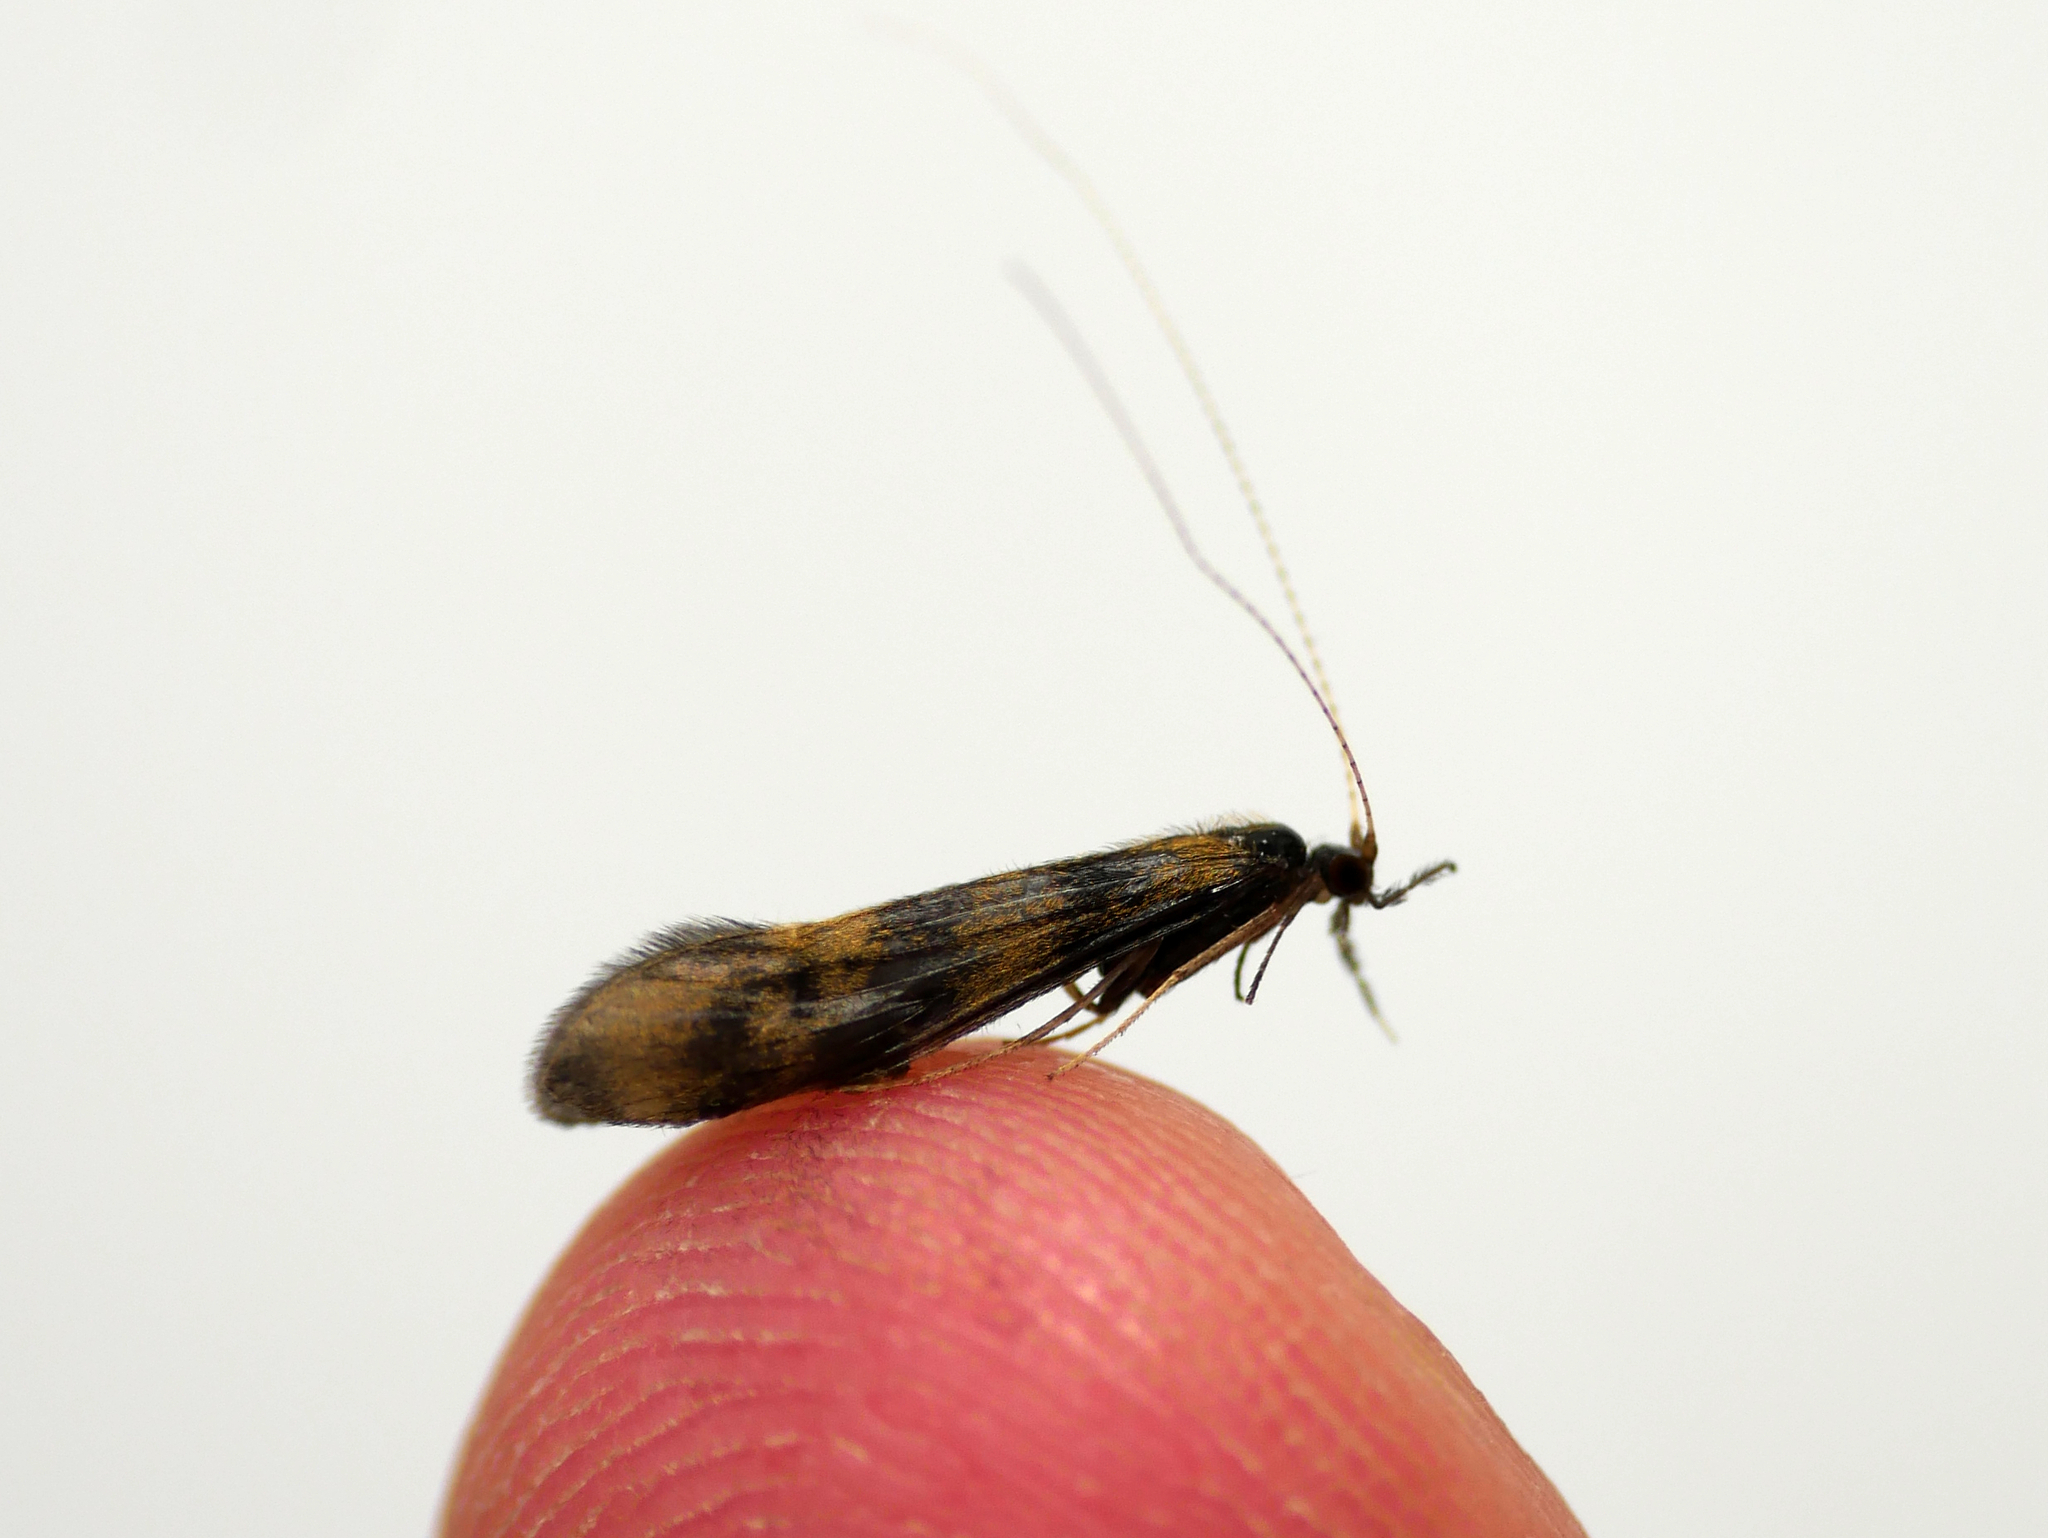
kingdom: Animalia
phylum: Arthropoda
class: Insecta
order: Trichoptera
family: Leptoceridae
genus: Mystacides
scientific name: Mystacides longicornis
